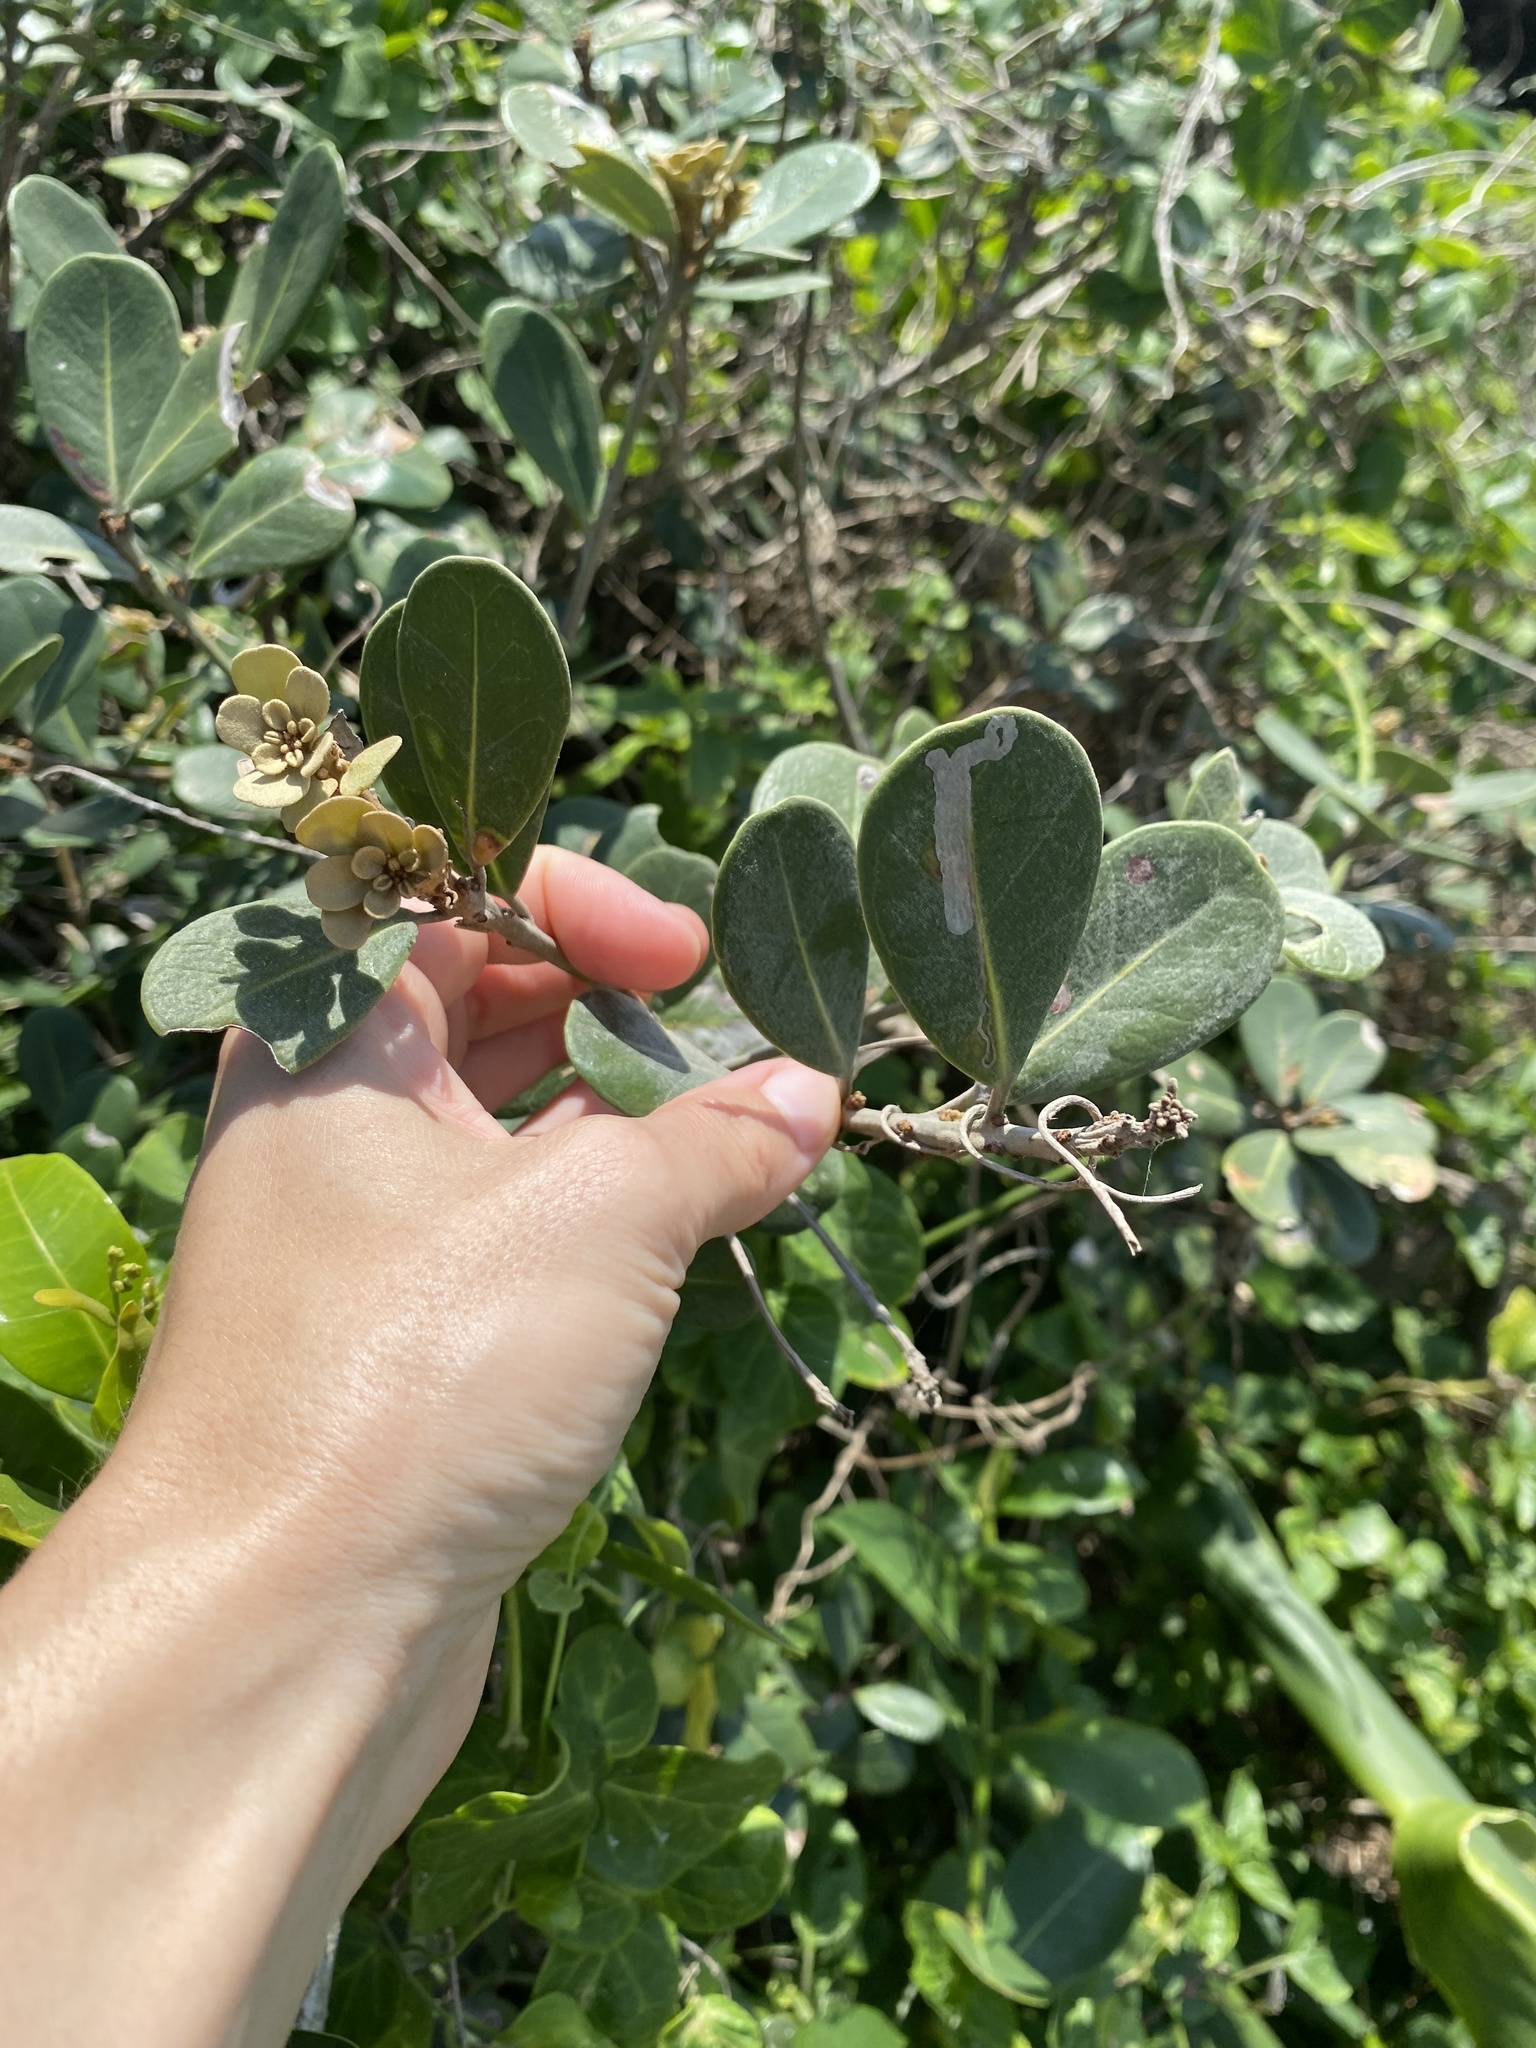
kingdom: Plantae
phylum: Tracheophyta
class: Magnoliopsida
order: Ericales
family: Sapotaceae
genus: Mimusops
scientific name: Mimusops caffra
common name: Coastal red milkwood
